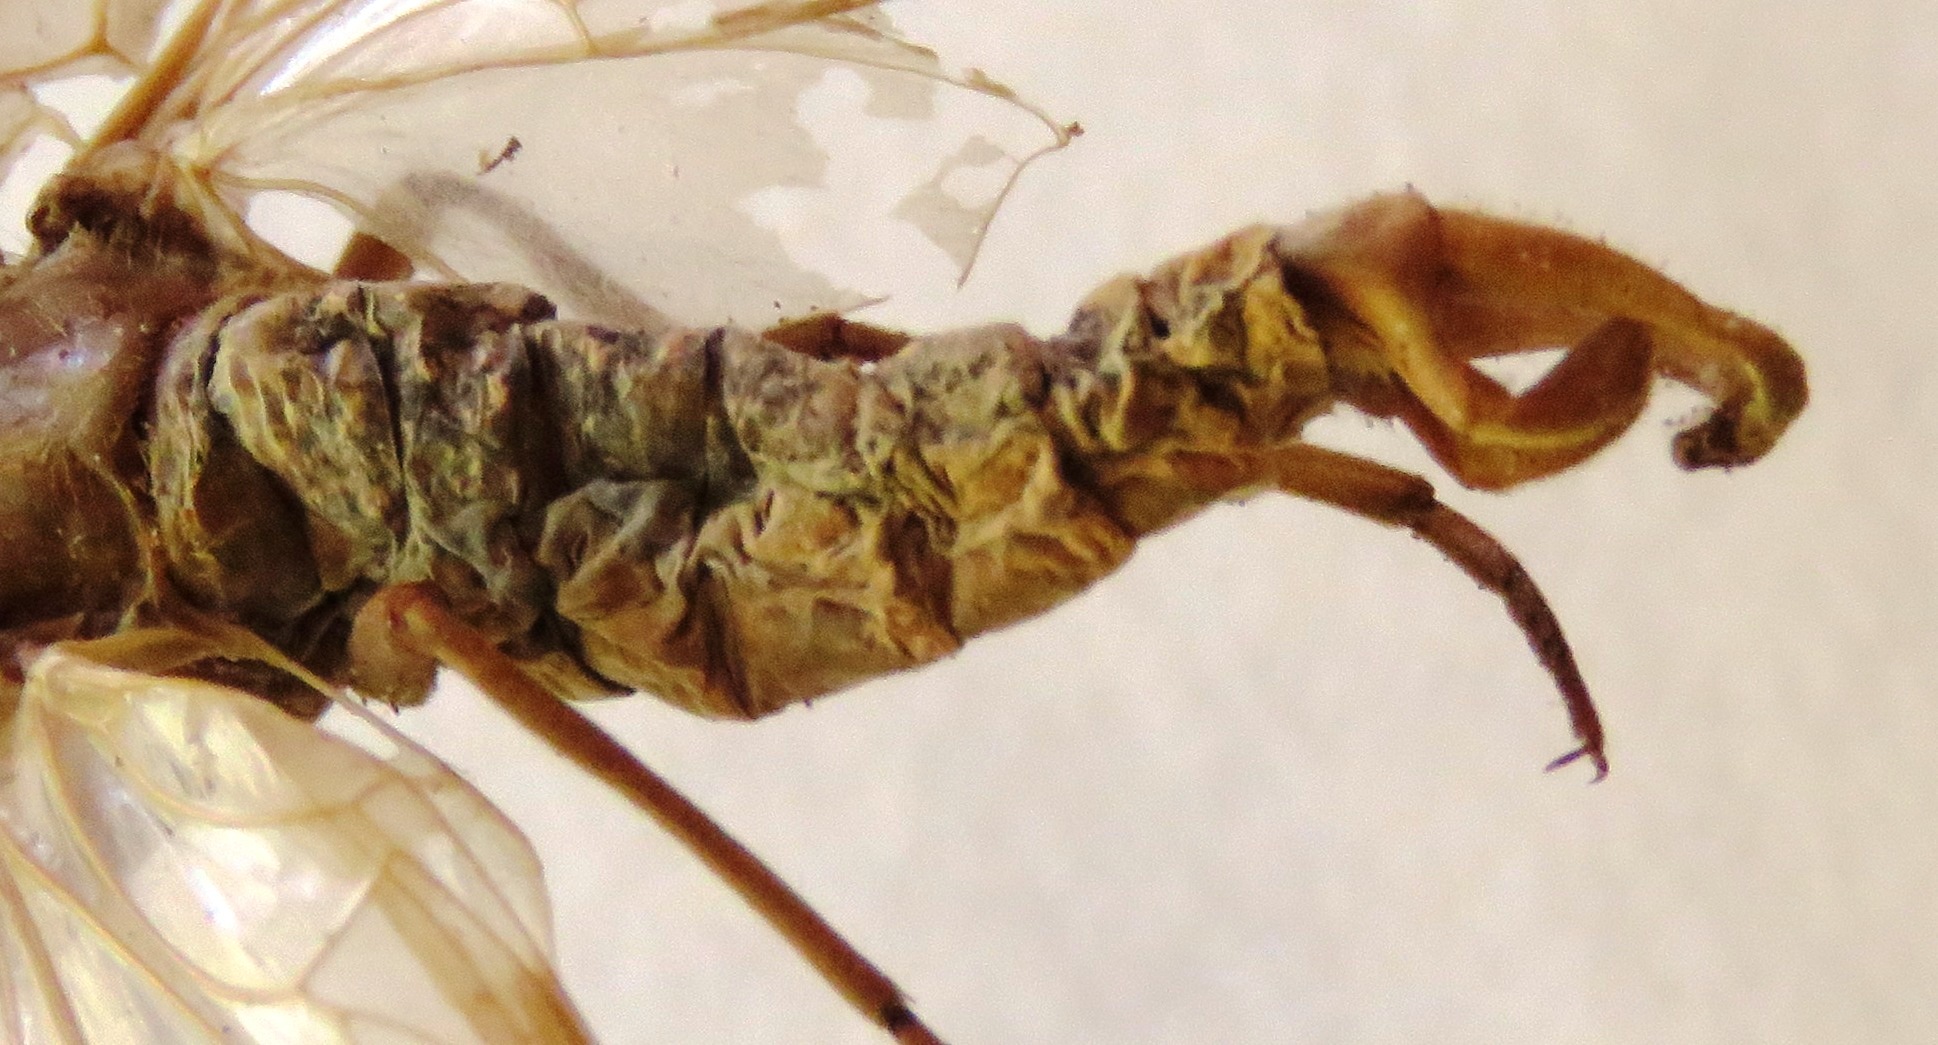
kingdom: Animalia
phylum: Arthropoda
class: Insecta
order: Megaloptera
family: Corydalidae
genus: Corydalus
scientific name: Corydalus magnus
